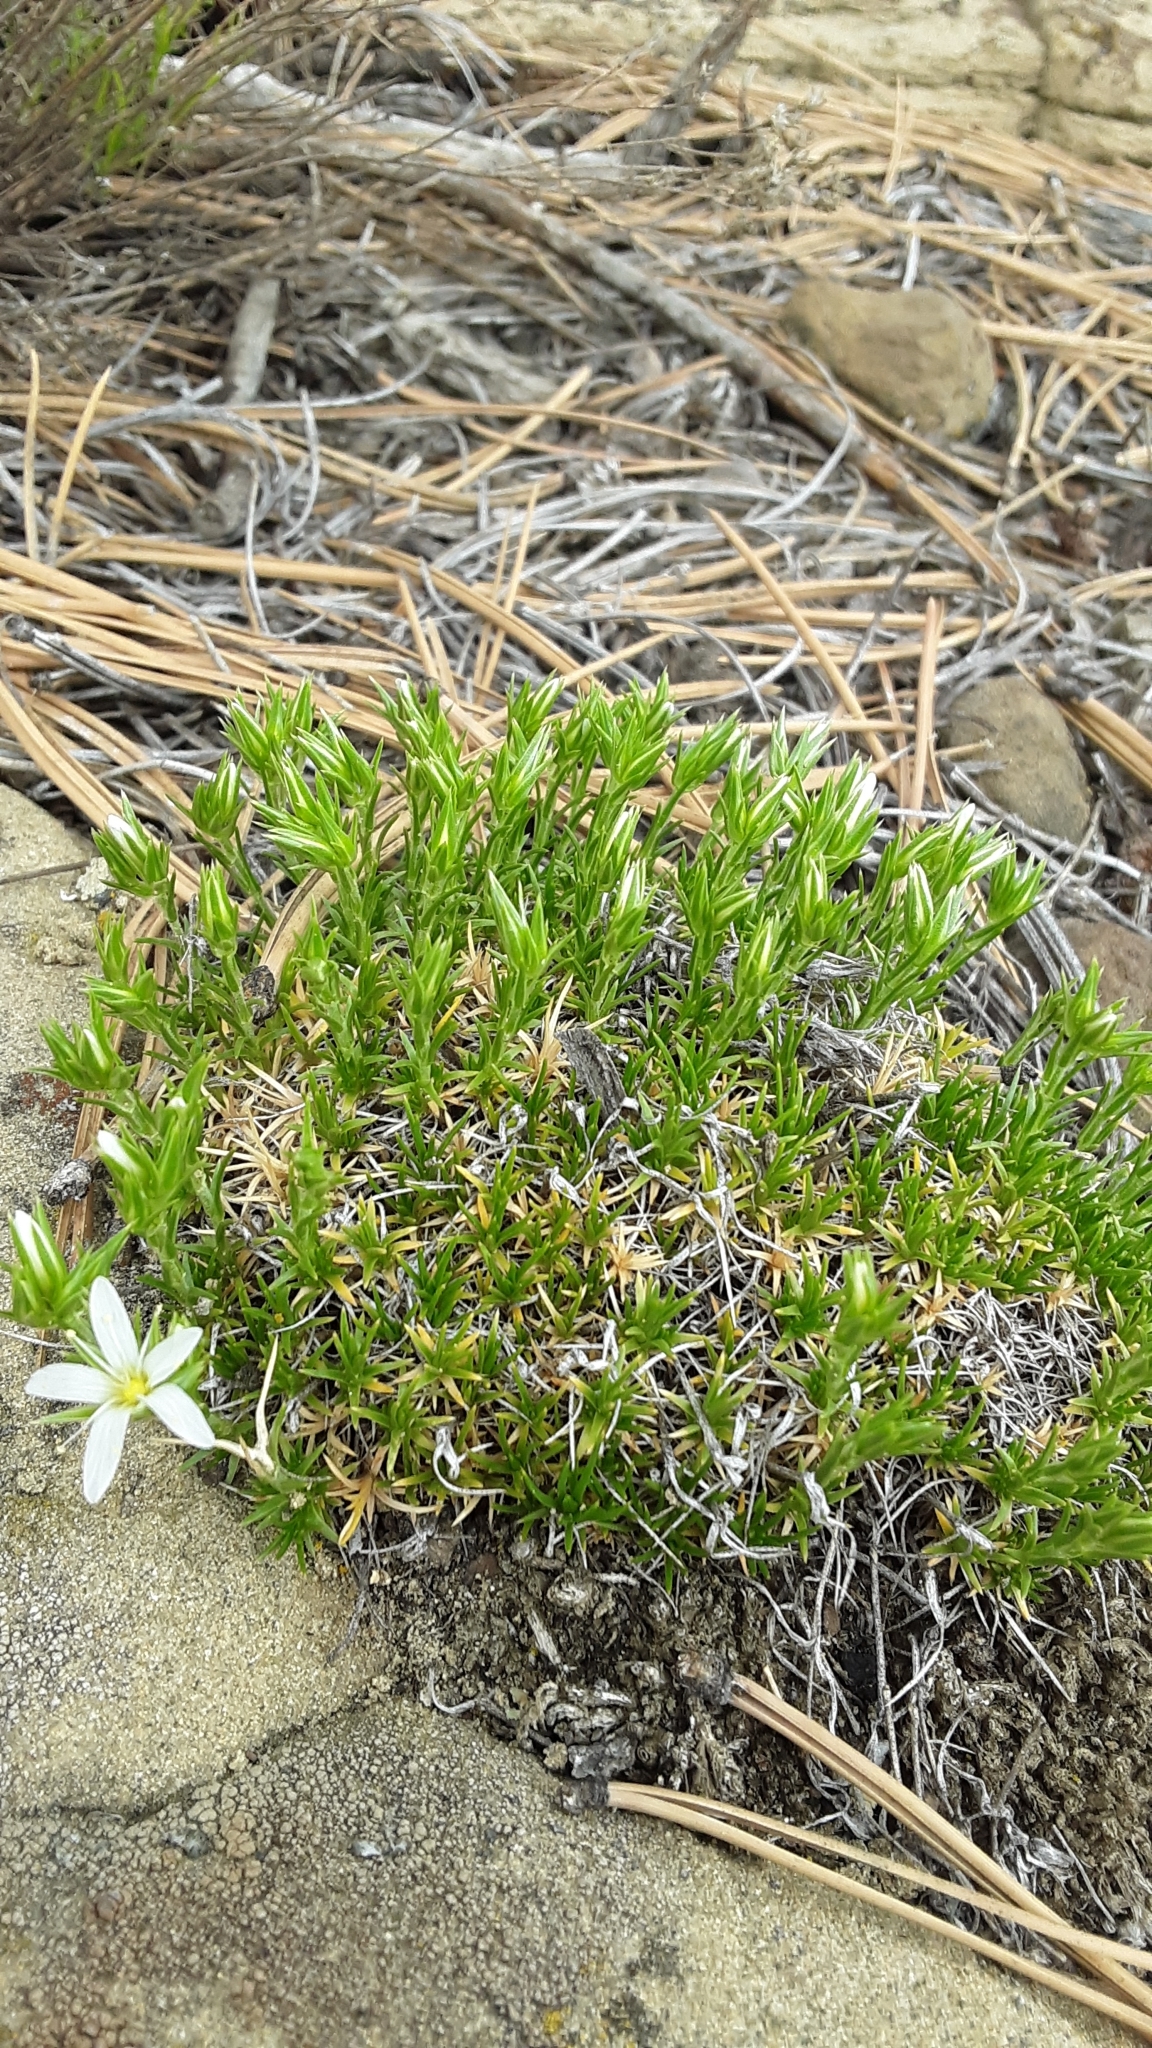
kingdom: Plantae
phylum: Tracheophyta
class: Magnoliopsida
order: Caryophyllales
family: Caryophyllaceae
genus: Eremogone
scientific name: Eremogone hookeri
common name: Hooker's sandwort
